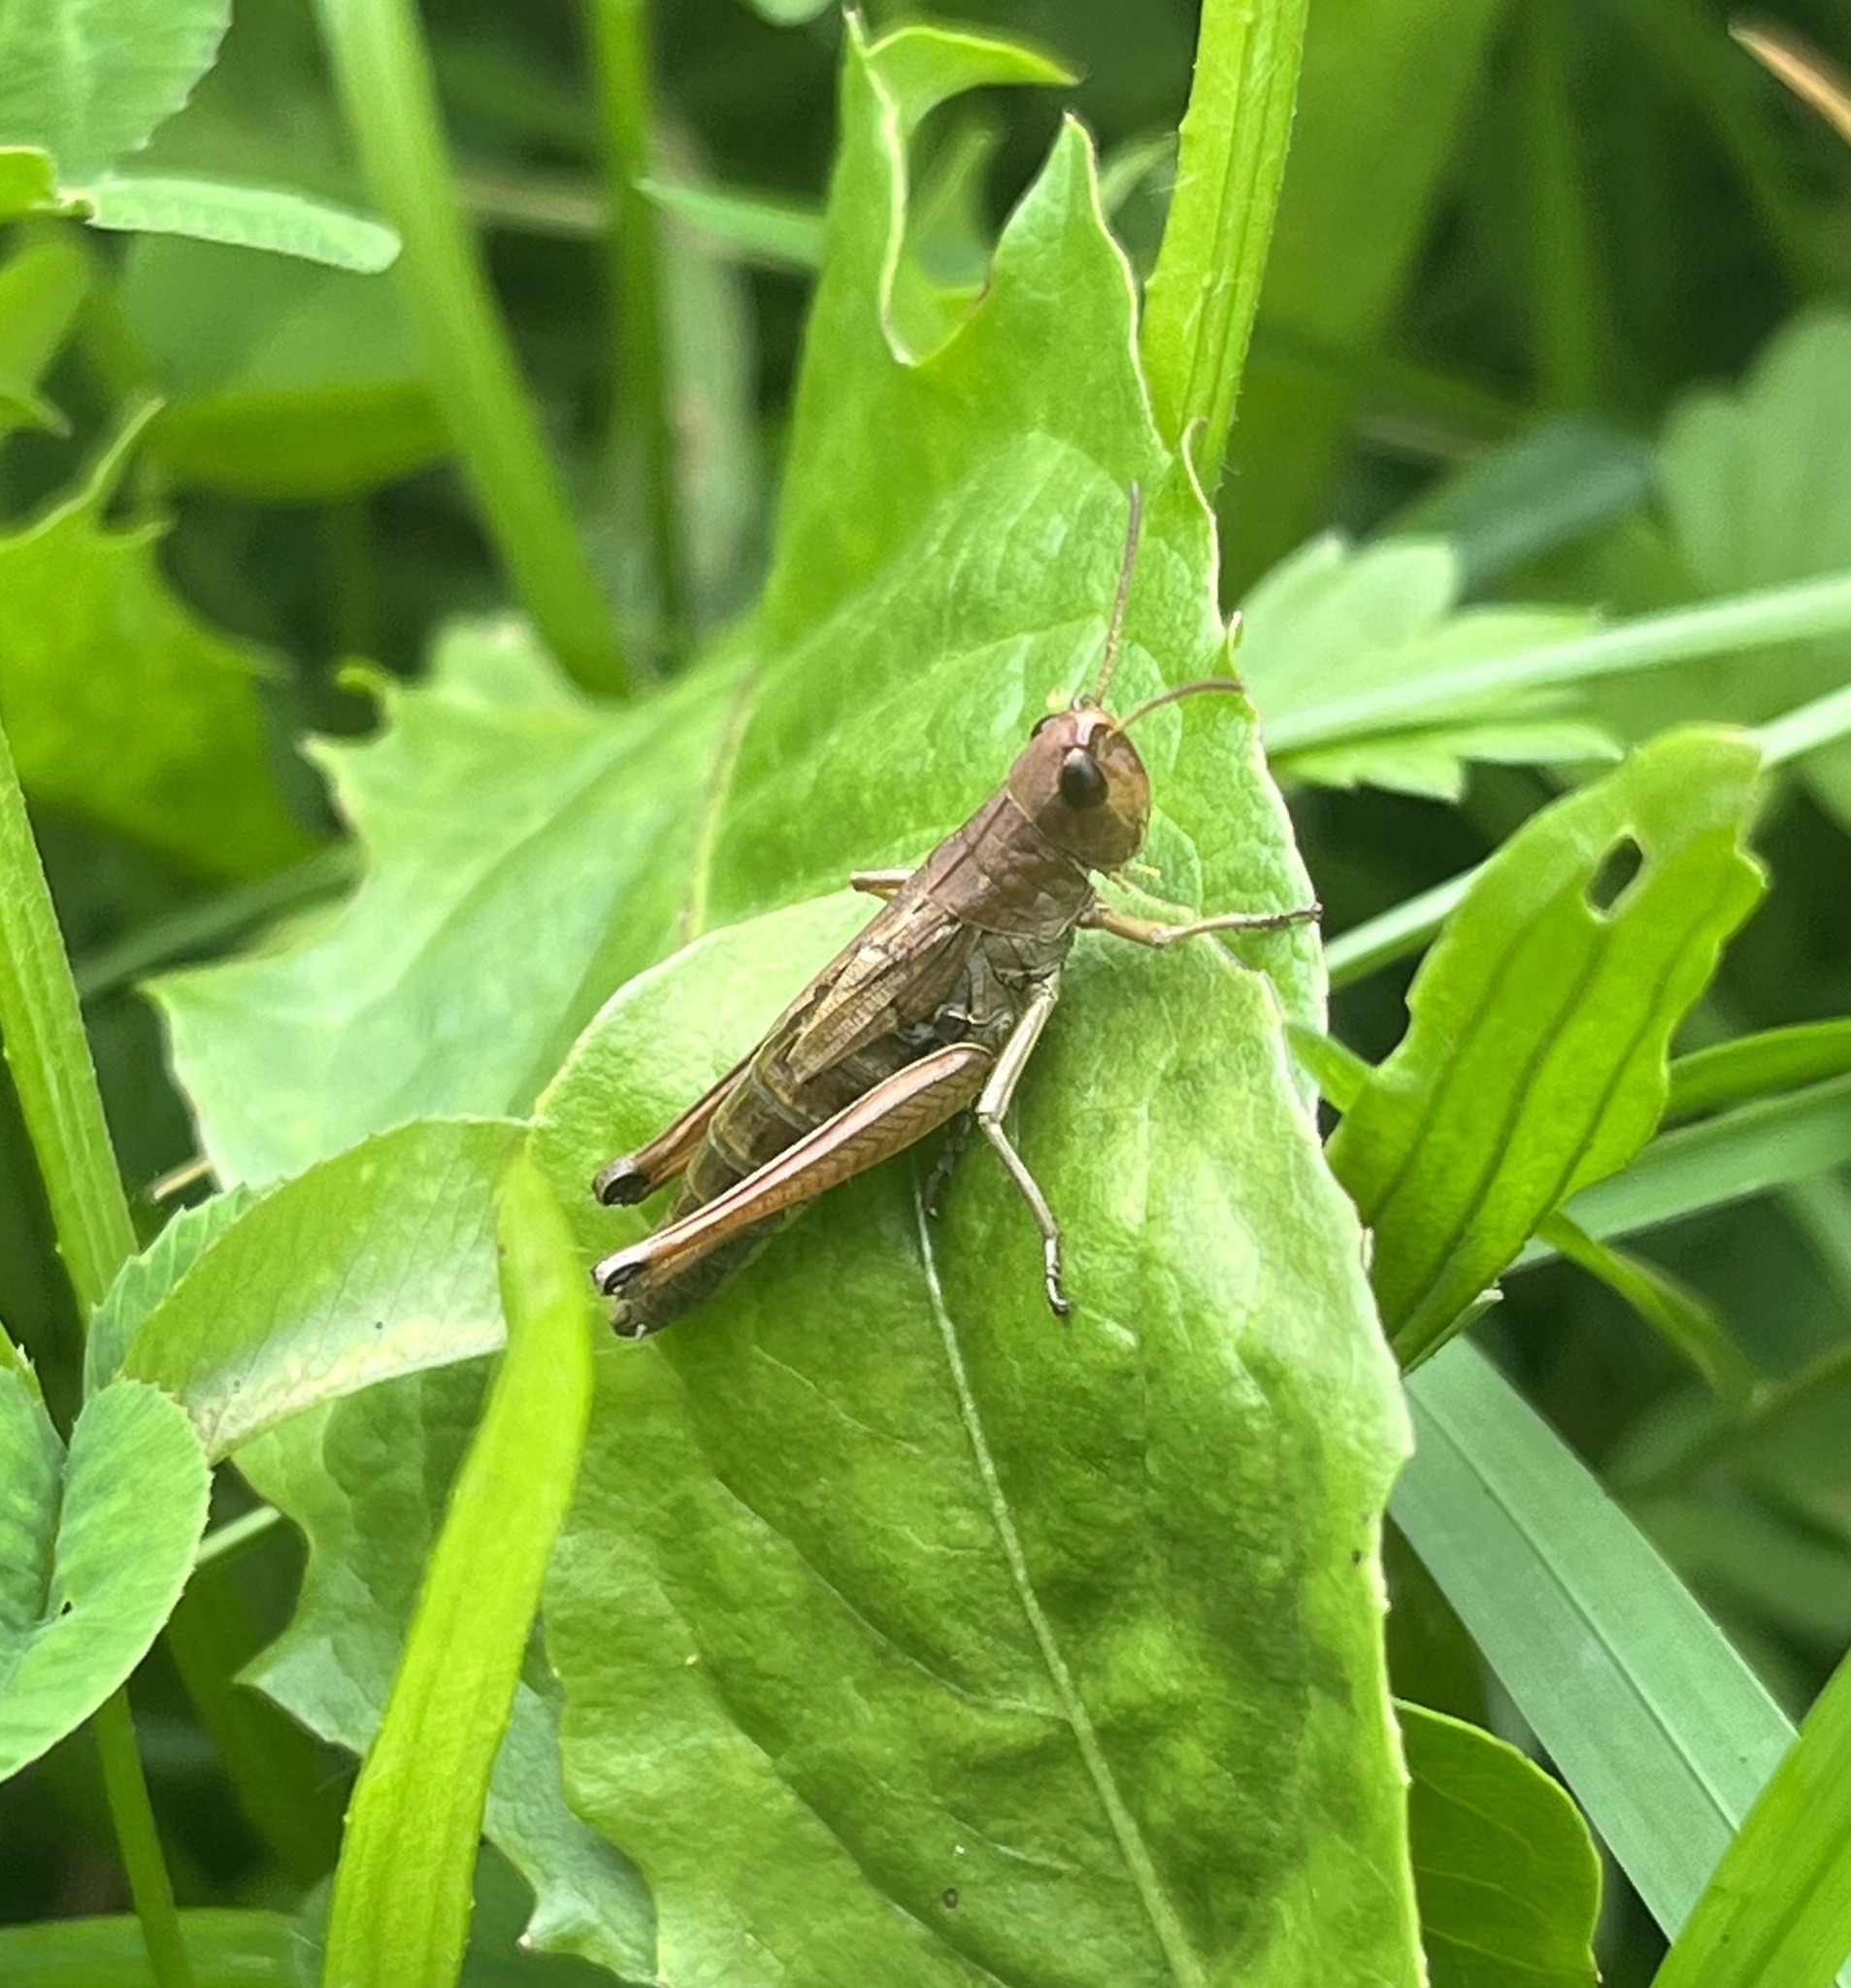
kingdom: Animalia
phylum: Arthropoda
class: Insecta
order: Orthoptera
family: Acrididae
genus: Pseudochorthippus
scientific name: Pseudochorthippus parallelus
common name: Meadow grasshopper
